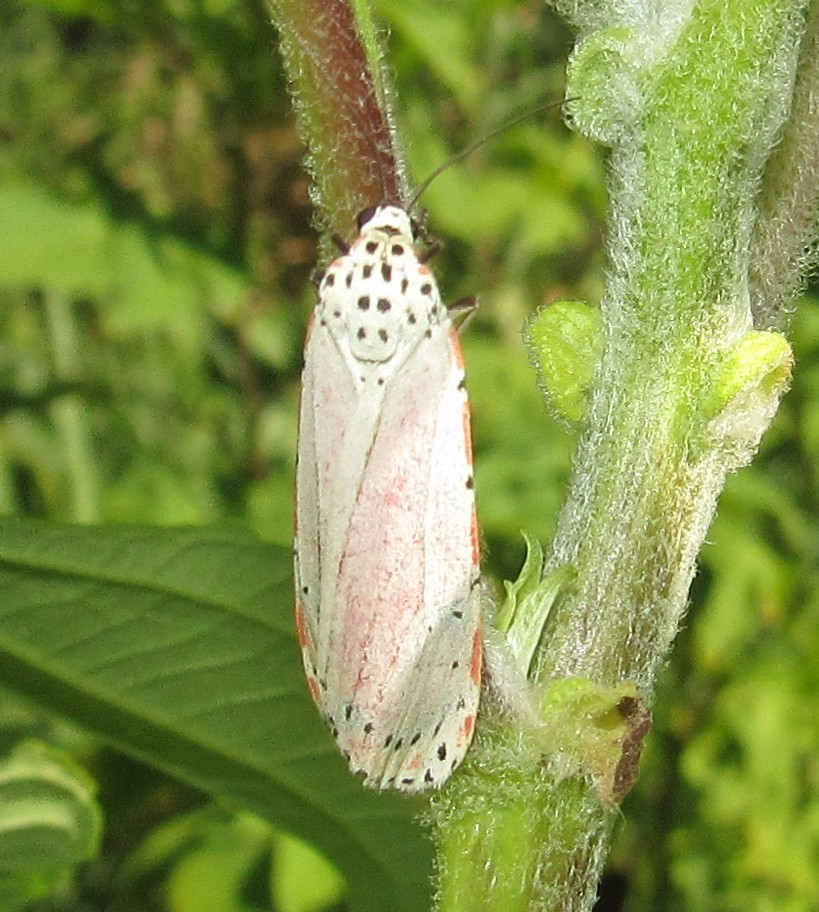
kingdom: Animalia
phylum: Arthropoda
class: Insecta
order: Lepidoptera
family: Erebidae
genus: Utetheisa
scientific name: Utetheisa ornatrix
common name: Beautiful utetheisa
